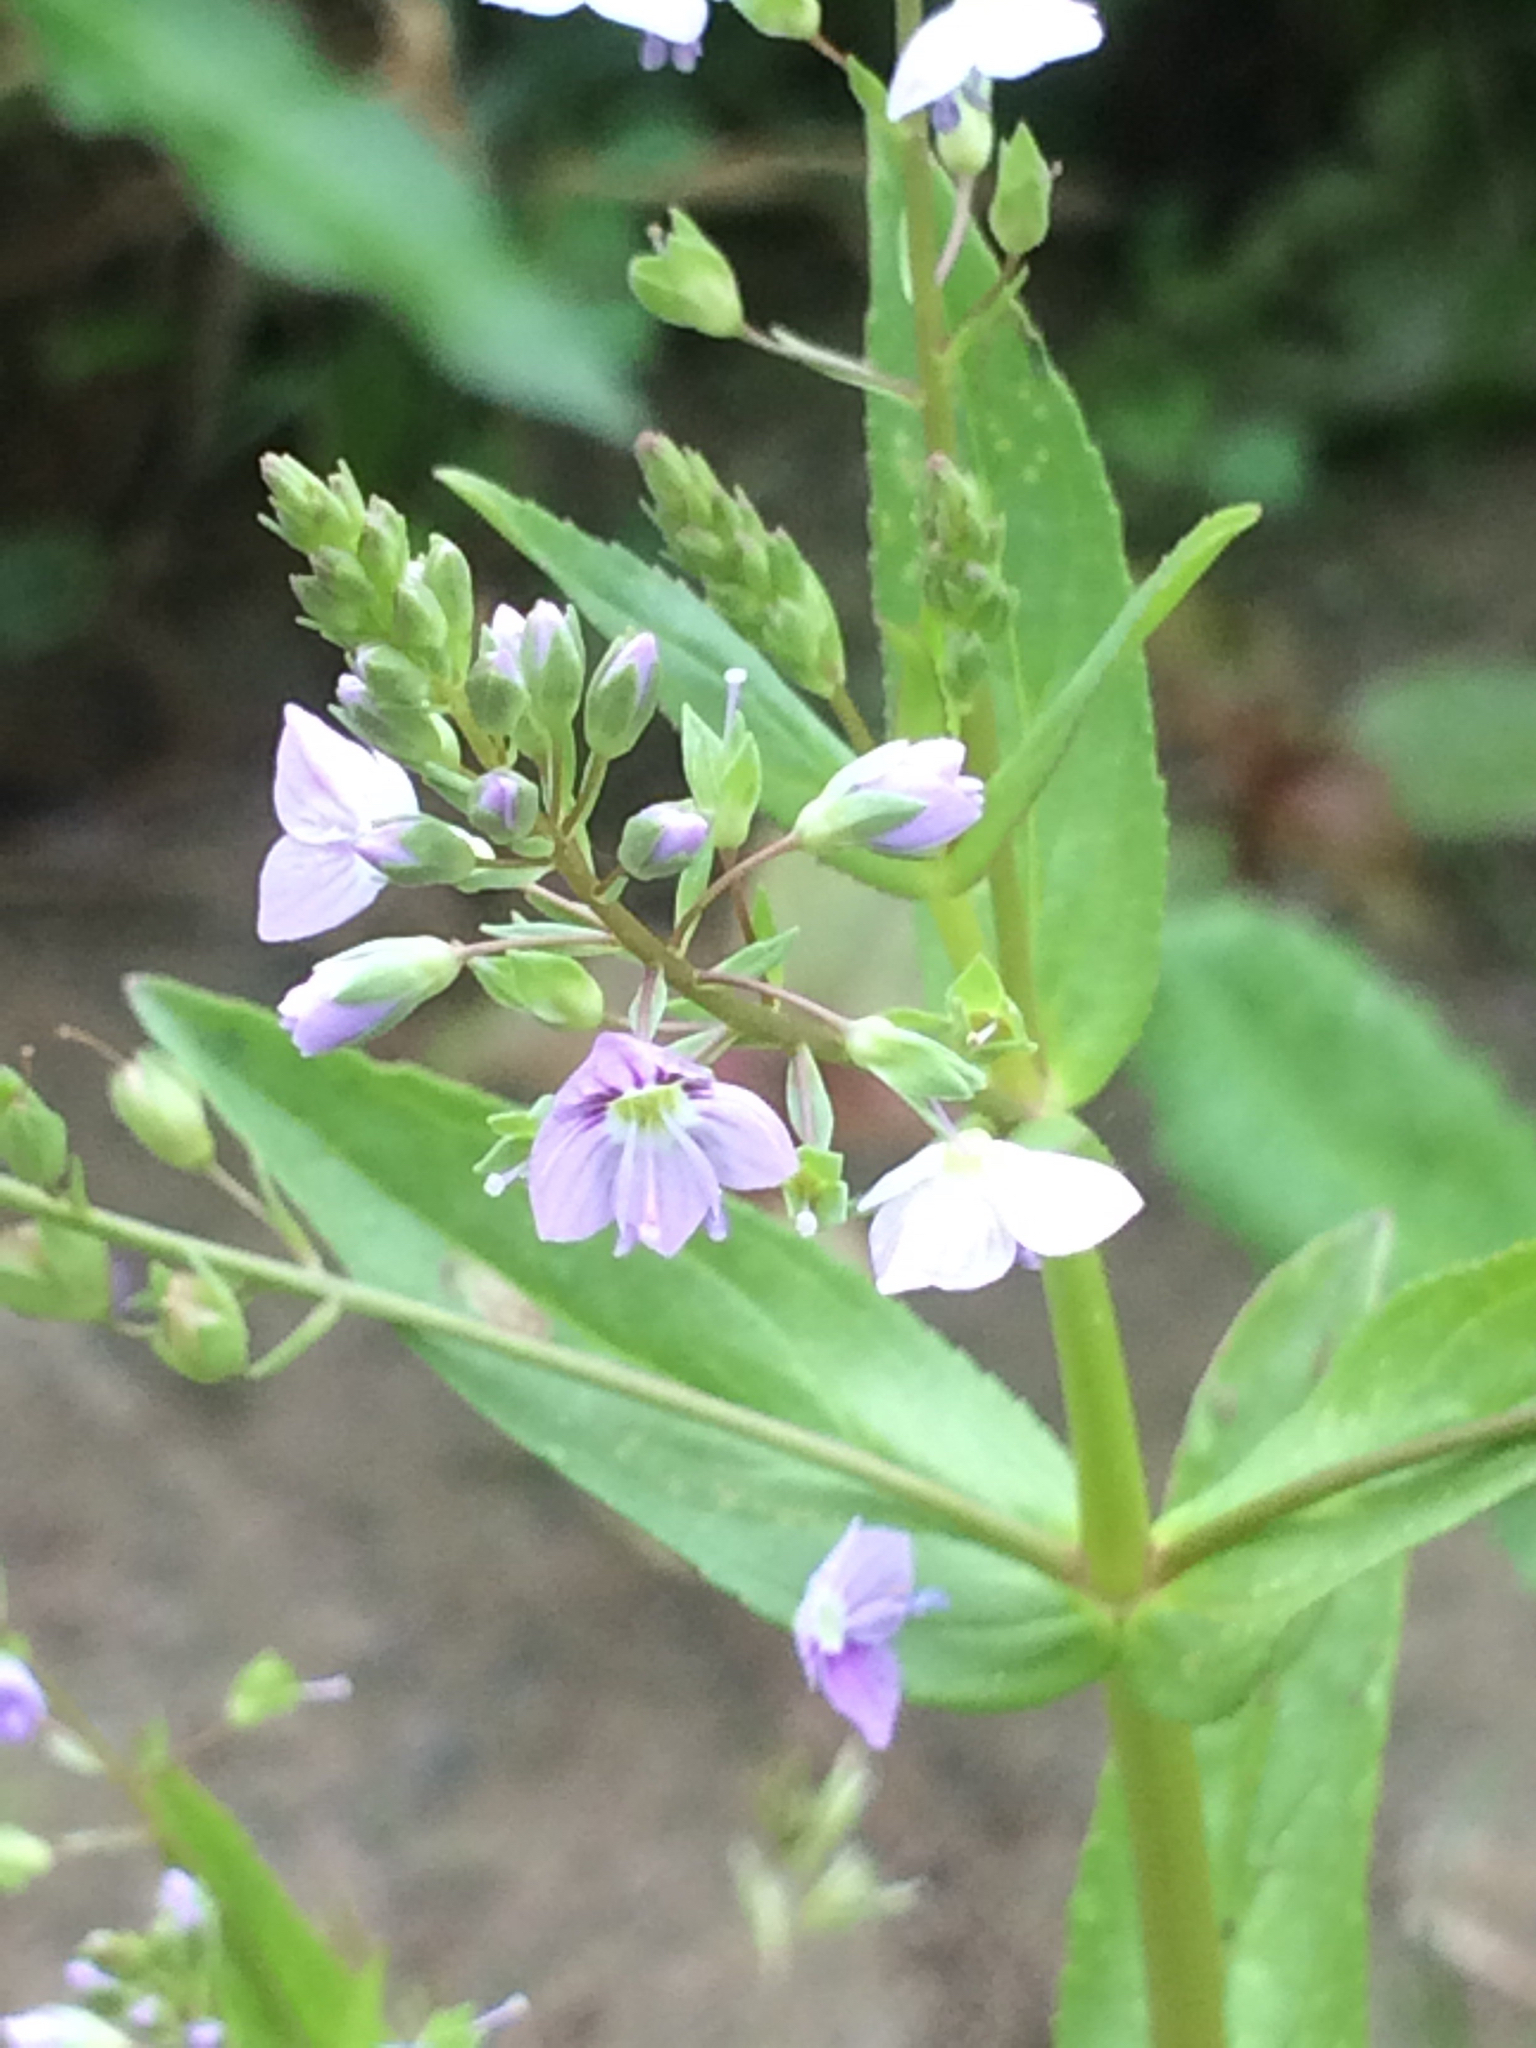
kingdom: Plantae
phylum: Tracheophyta
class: Magnoliopsida
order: Lamiales
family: Plantaginaceae
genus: Veronica
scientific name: Veronica anagallis-aquatica
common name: Water speedwell
